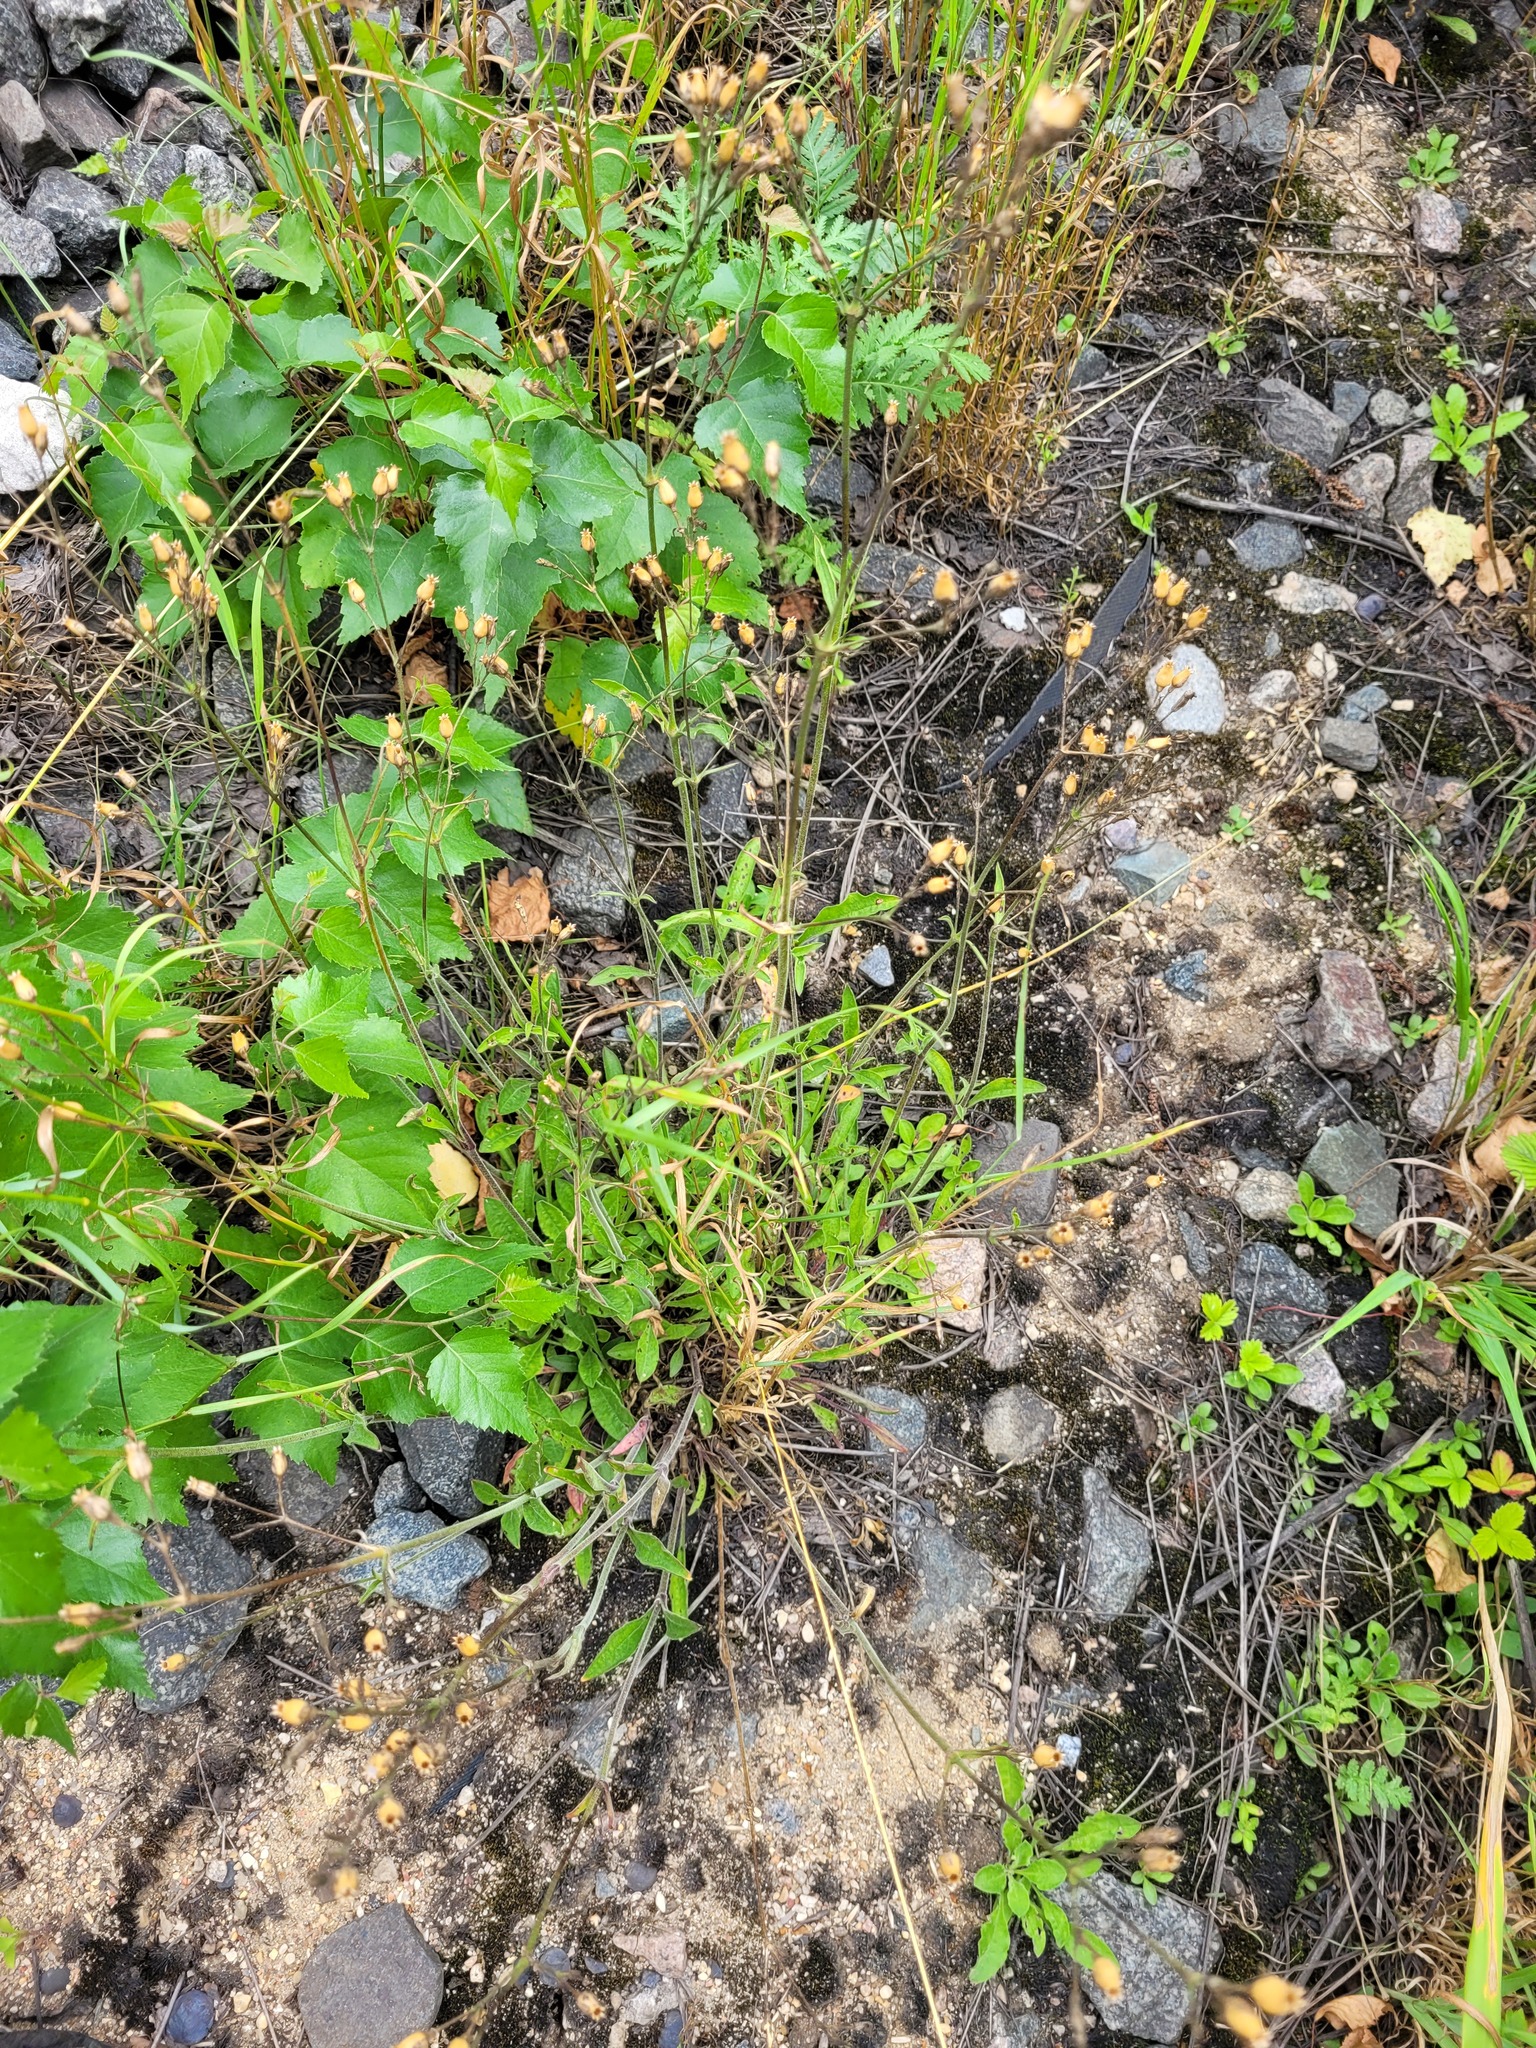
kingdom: Plantae
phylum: Tracheophyta
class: Magnoliopsida
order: Caryophyllales
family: Caryophyllaceae
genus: Silene
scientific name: Silene nutans
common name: Nottingham catchfly
